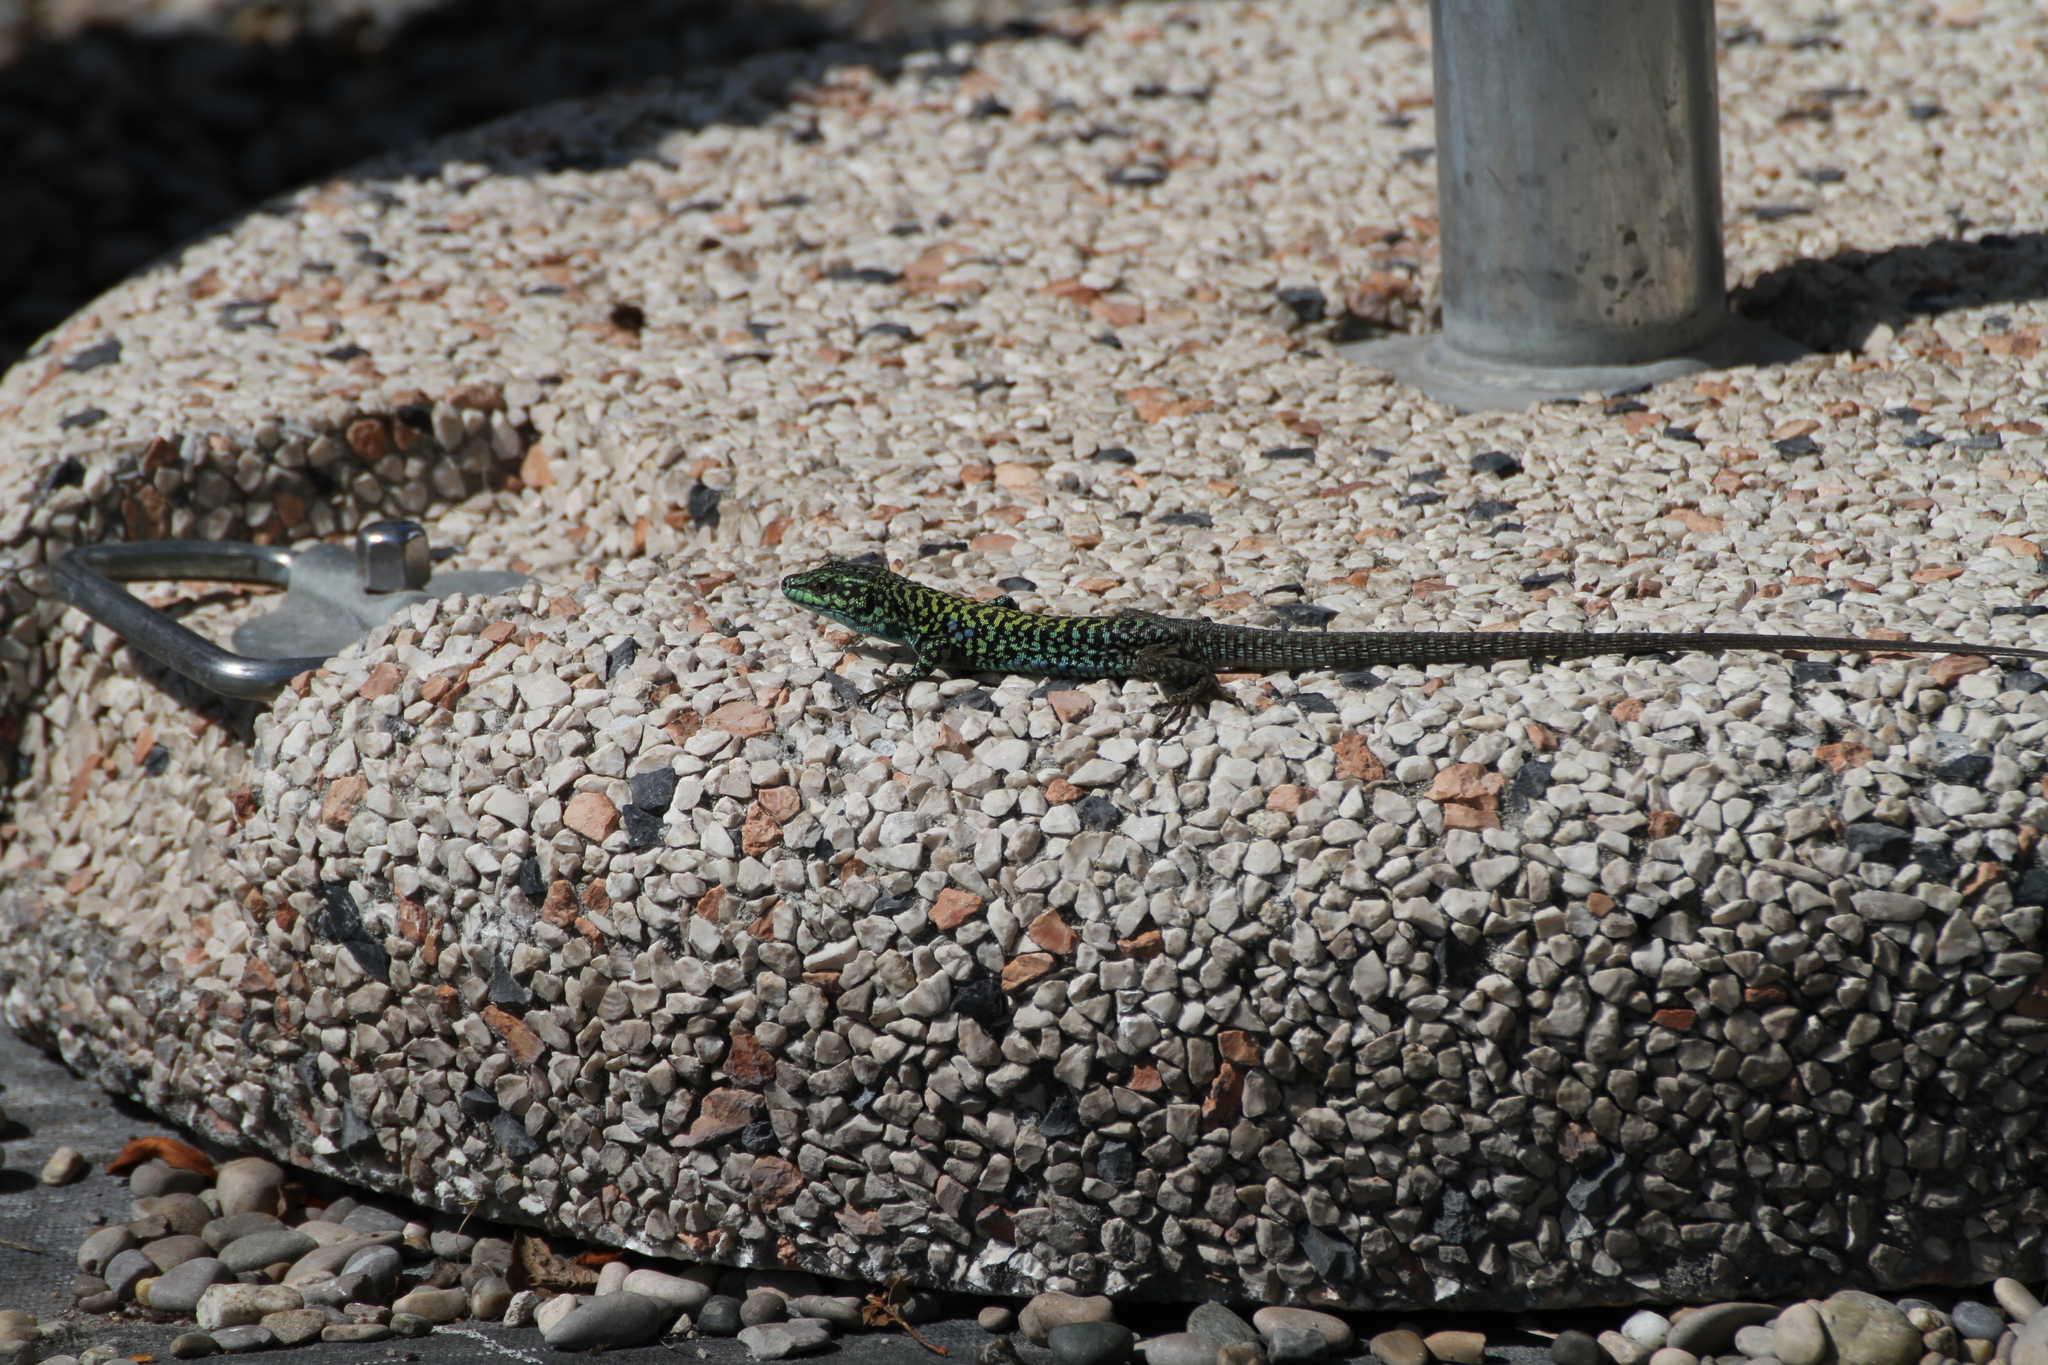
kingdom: Animalia
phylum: Chordata
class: Squamata
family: Lacertidae
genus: Podarcis
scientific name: Podarcis siculus
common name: Italian wall lizard
